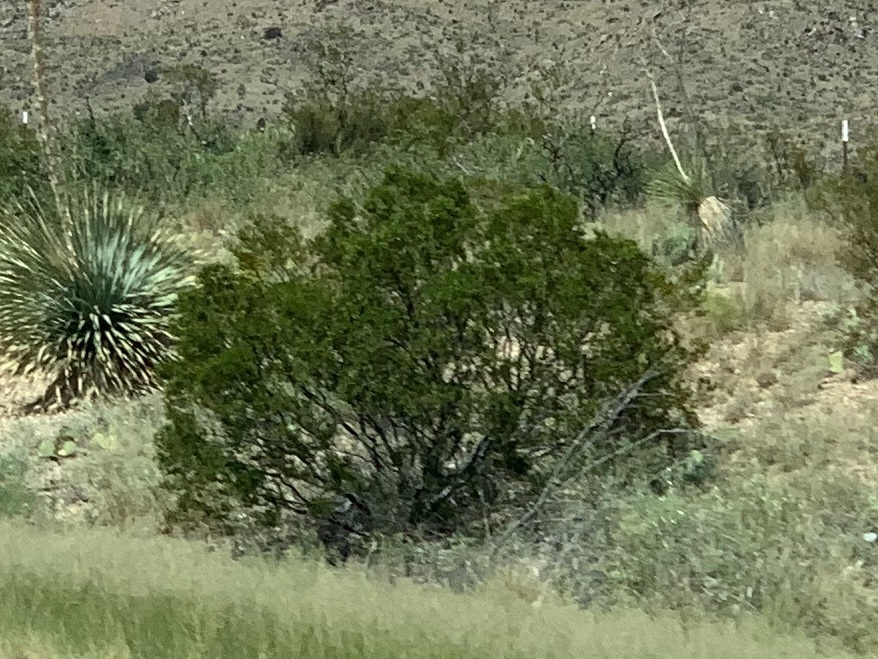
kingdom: Plantae
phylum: Tracheophyta
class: Magnoliopsida
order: Zygophyllales
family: Zygophyllaceae
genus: Larrea
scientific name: Larrea tridentata
